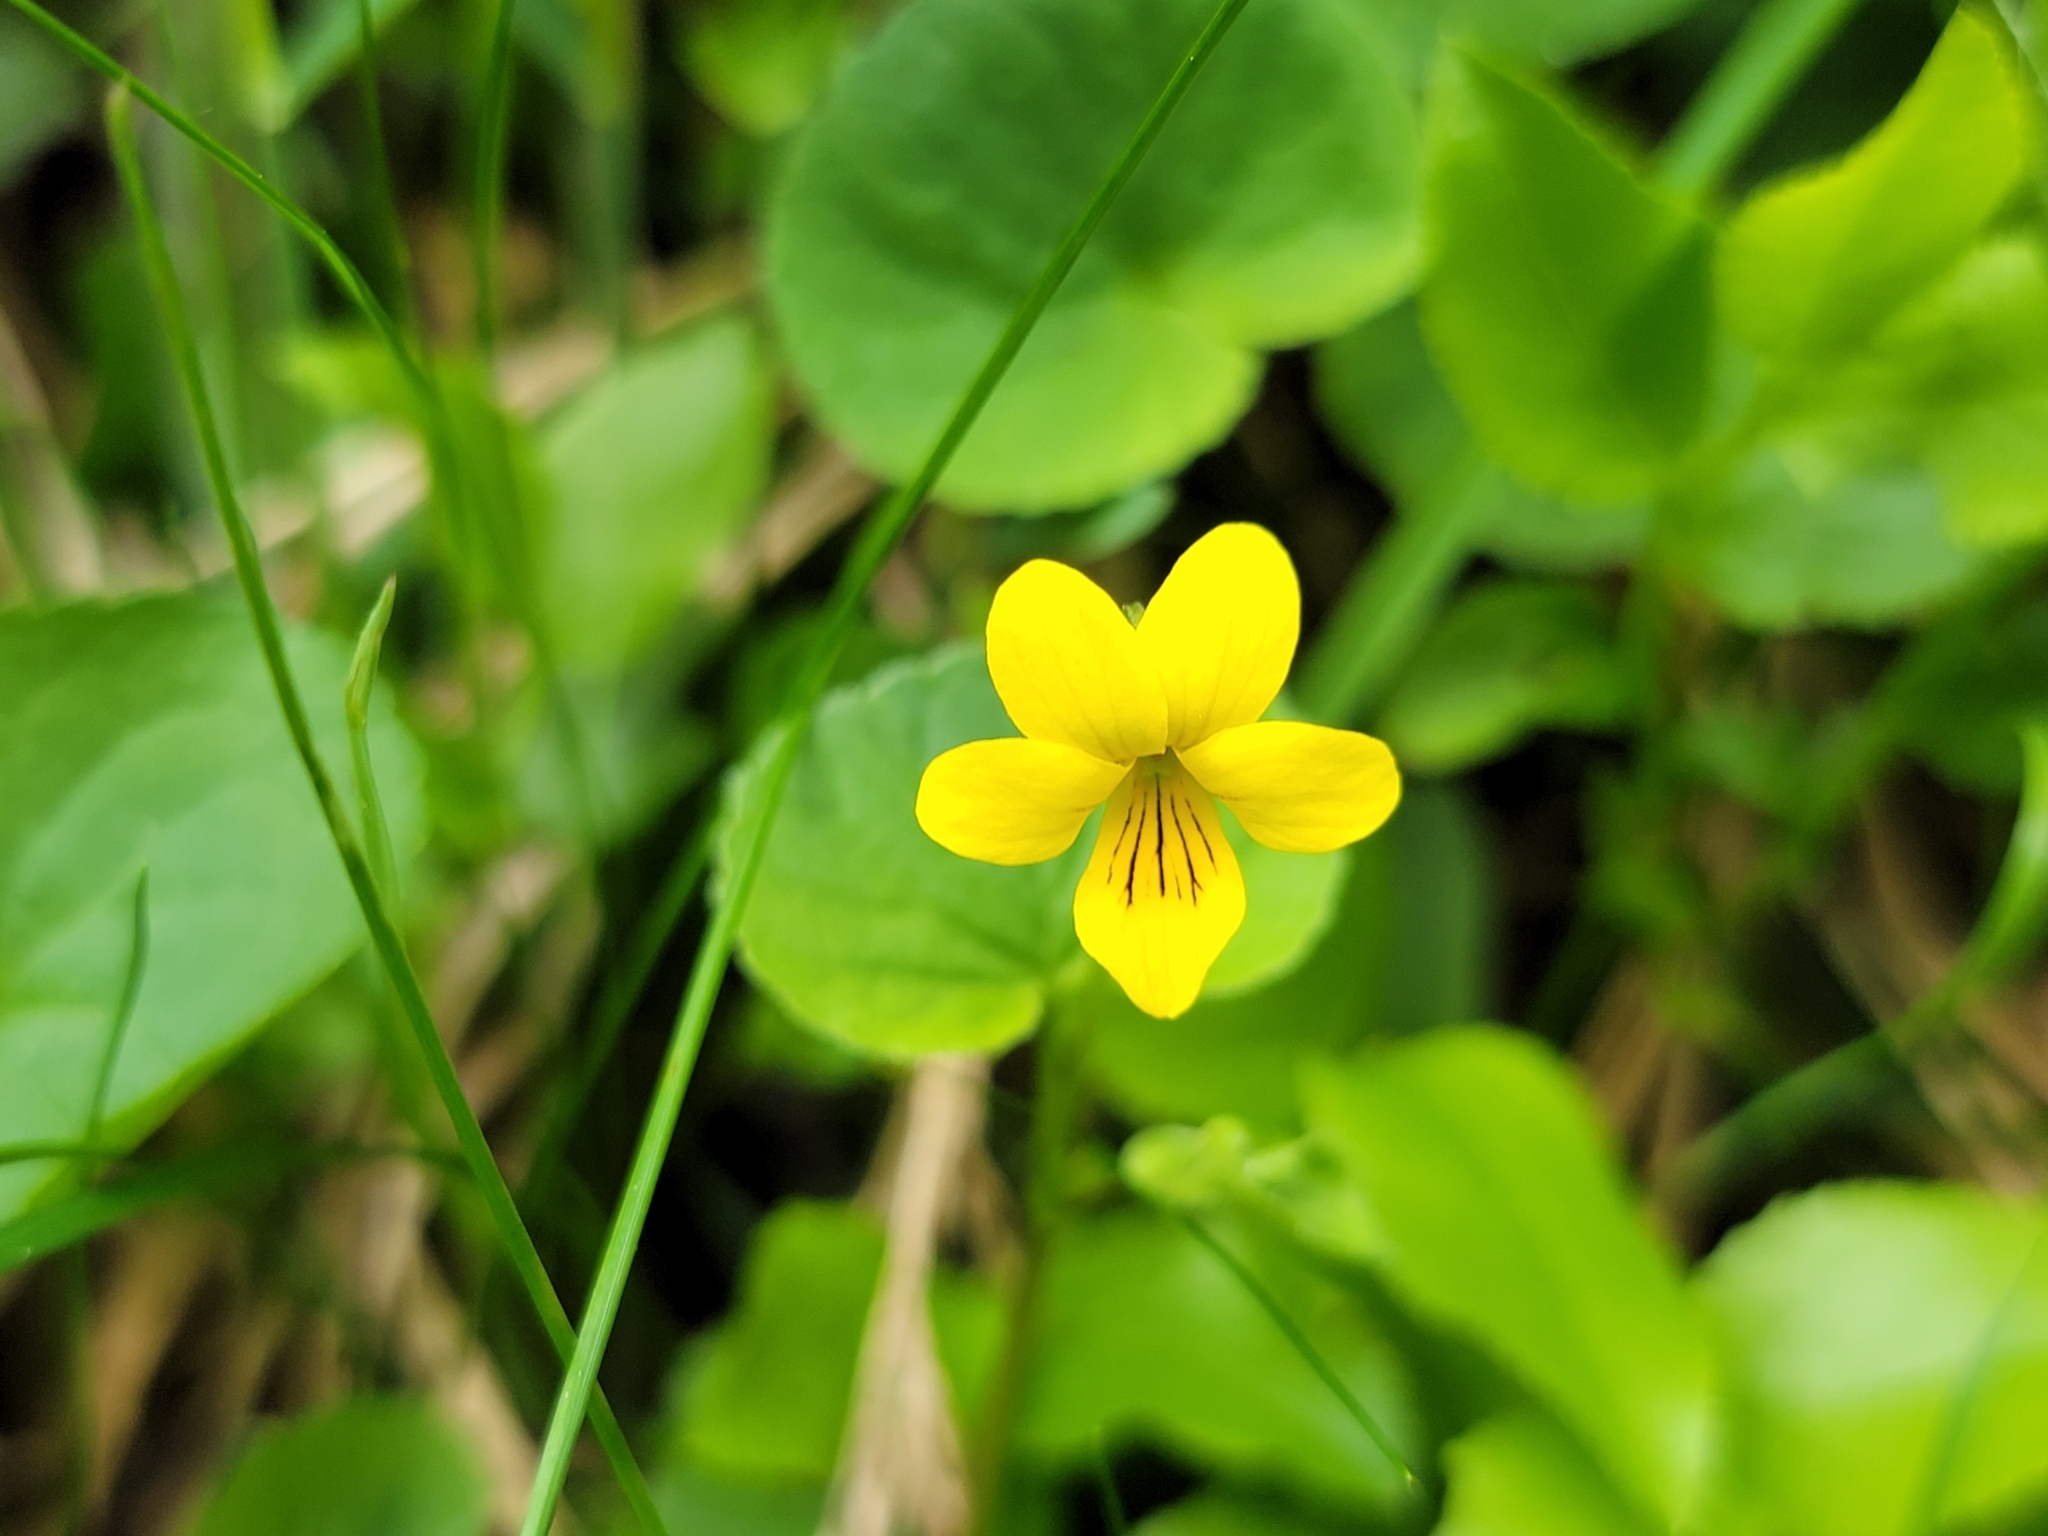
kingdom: Plantae
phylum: Tracheophyta
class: Magnoliopsida
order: Malpighiales
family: Violaceae
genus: Viola
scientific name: Viola biflora
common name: Alpine yellow violet
